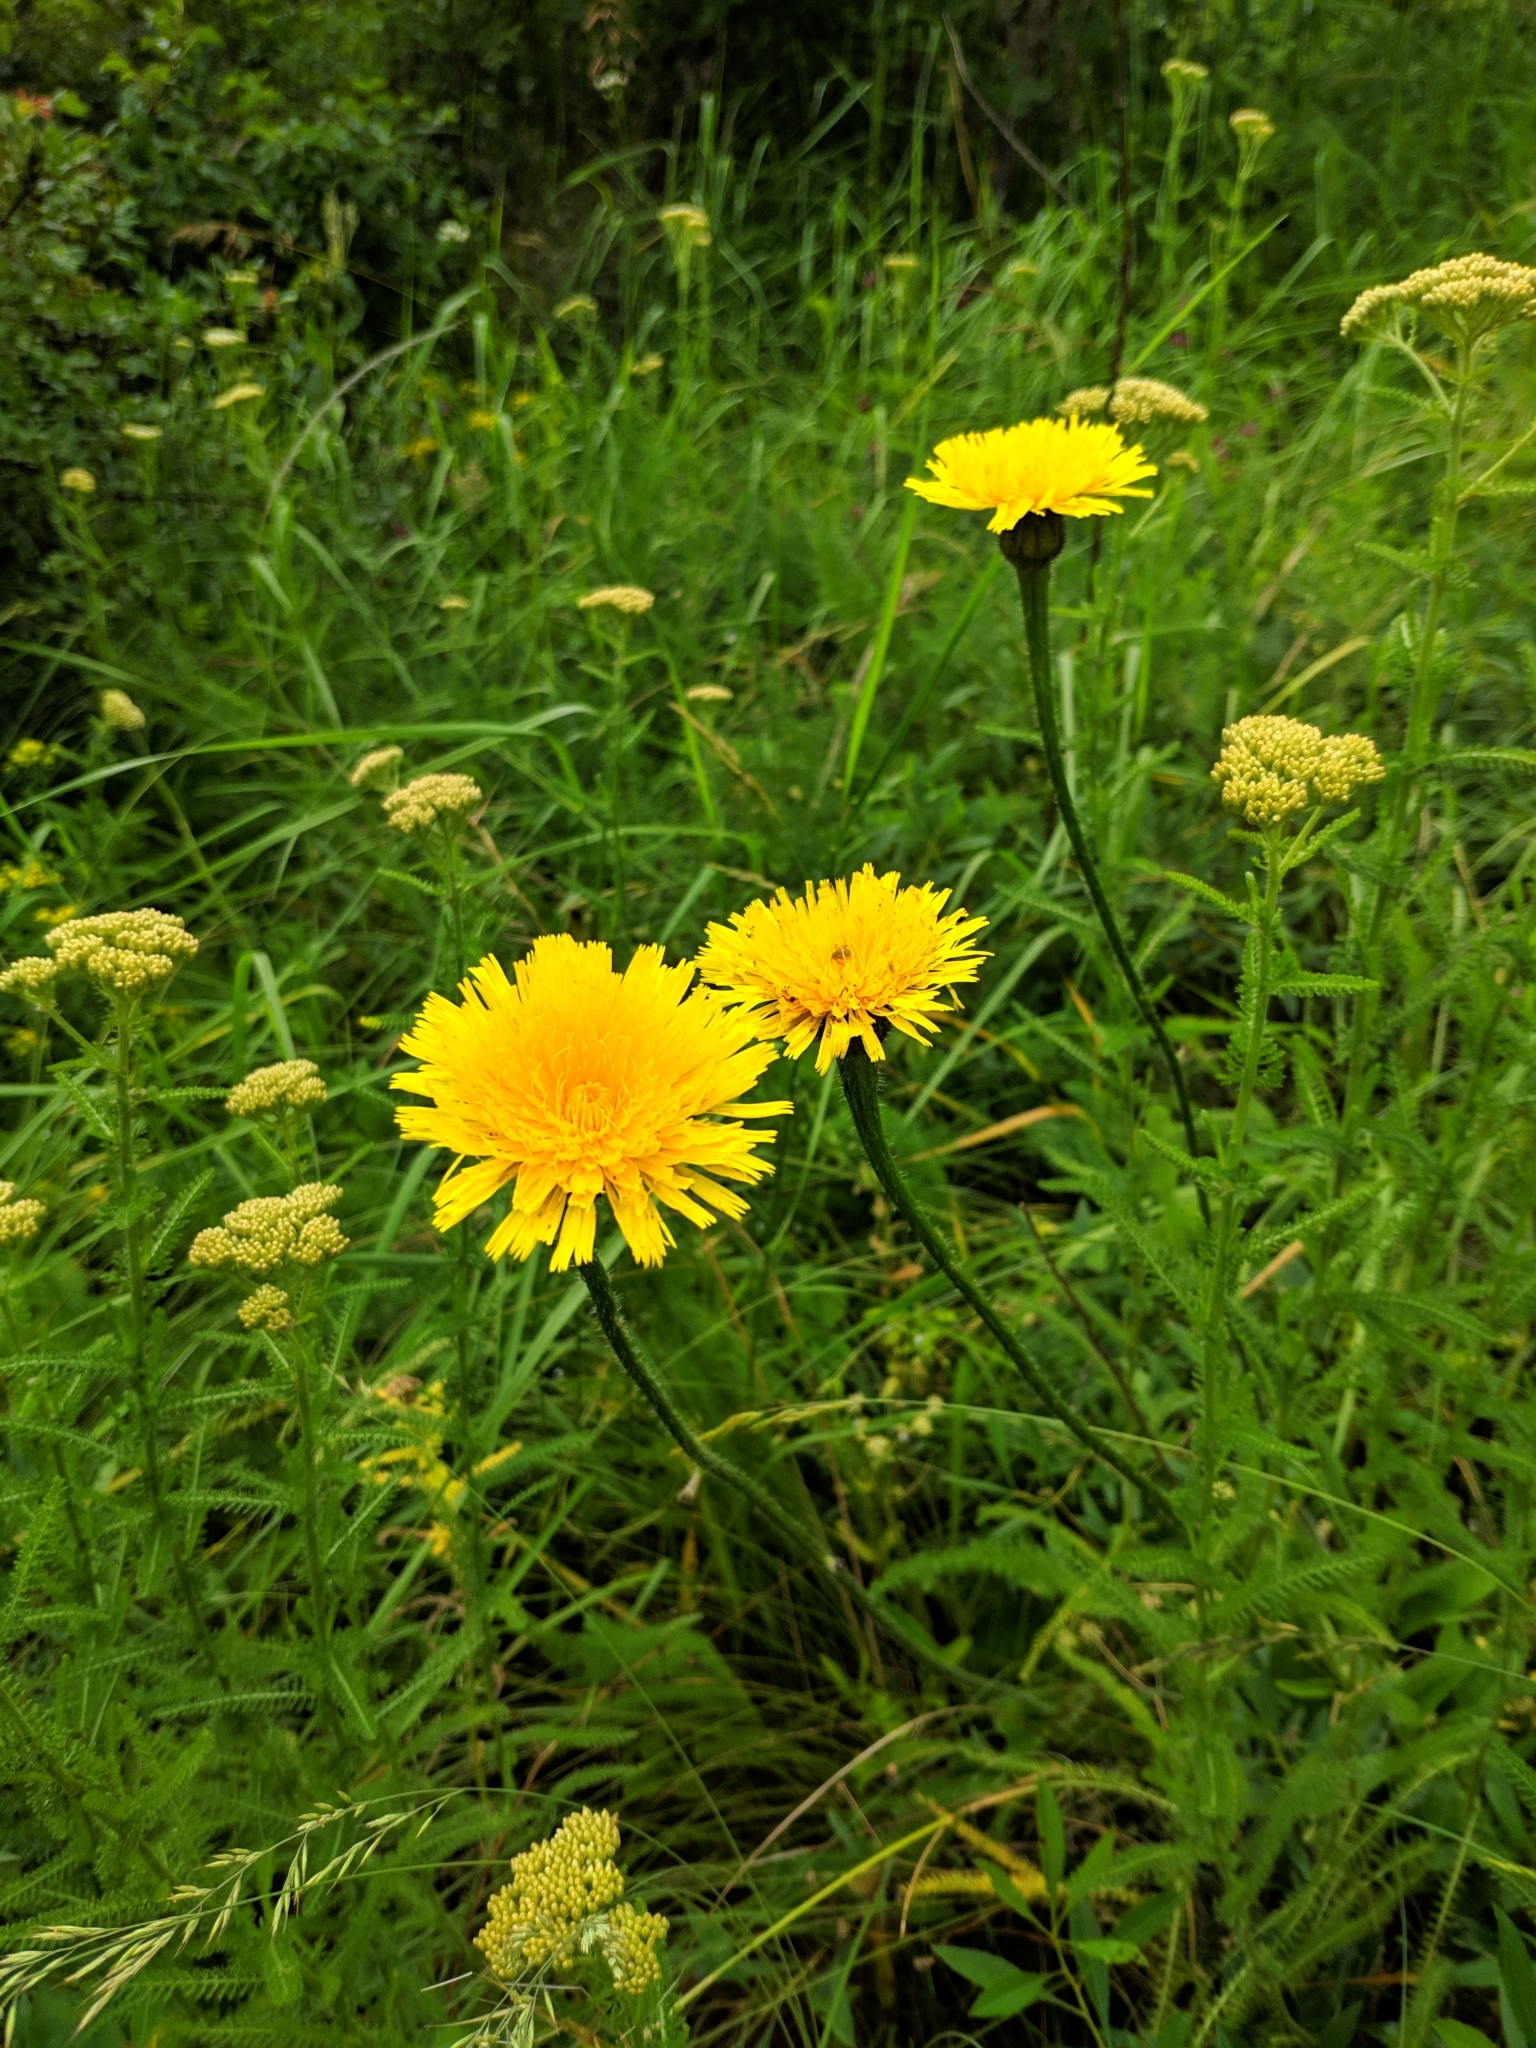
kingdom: Plantae
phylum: Tracheophyta
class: Magnoliopsida
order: Asterales
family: Asteraceae
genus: Trommsdorffia
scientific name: Trommsdorffia maculata
